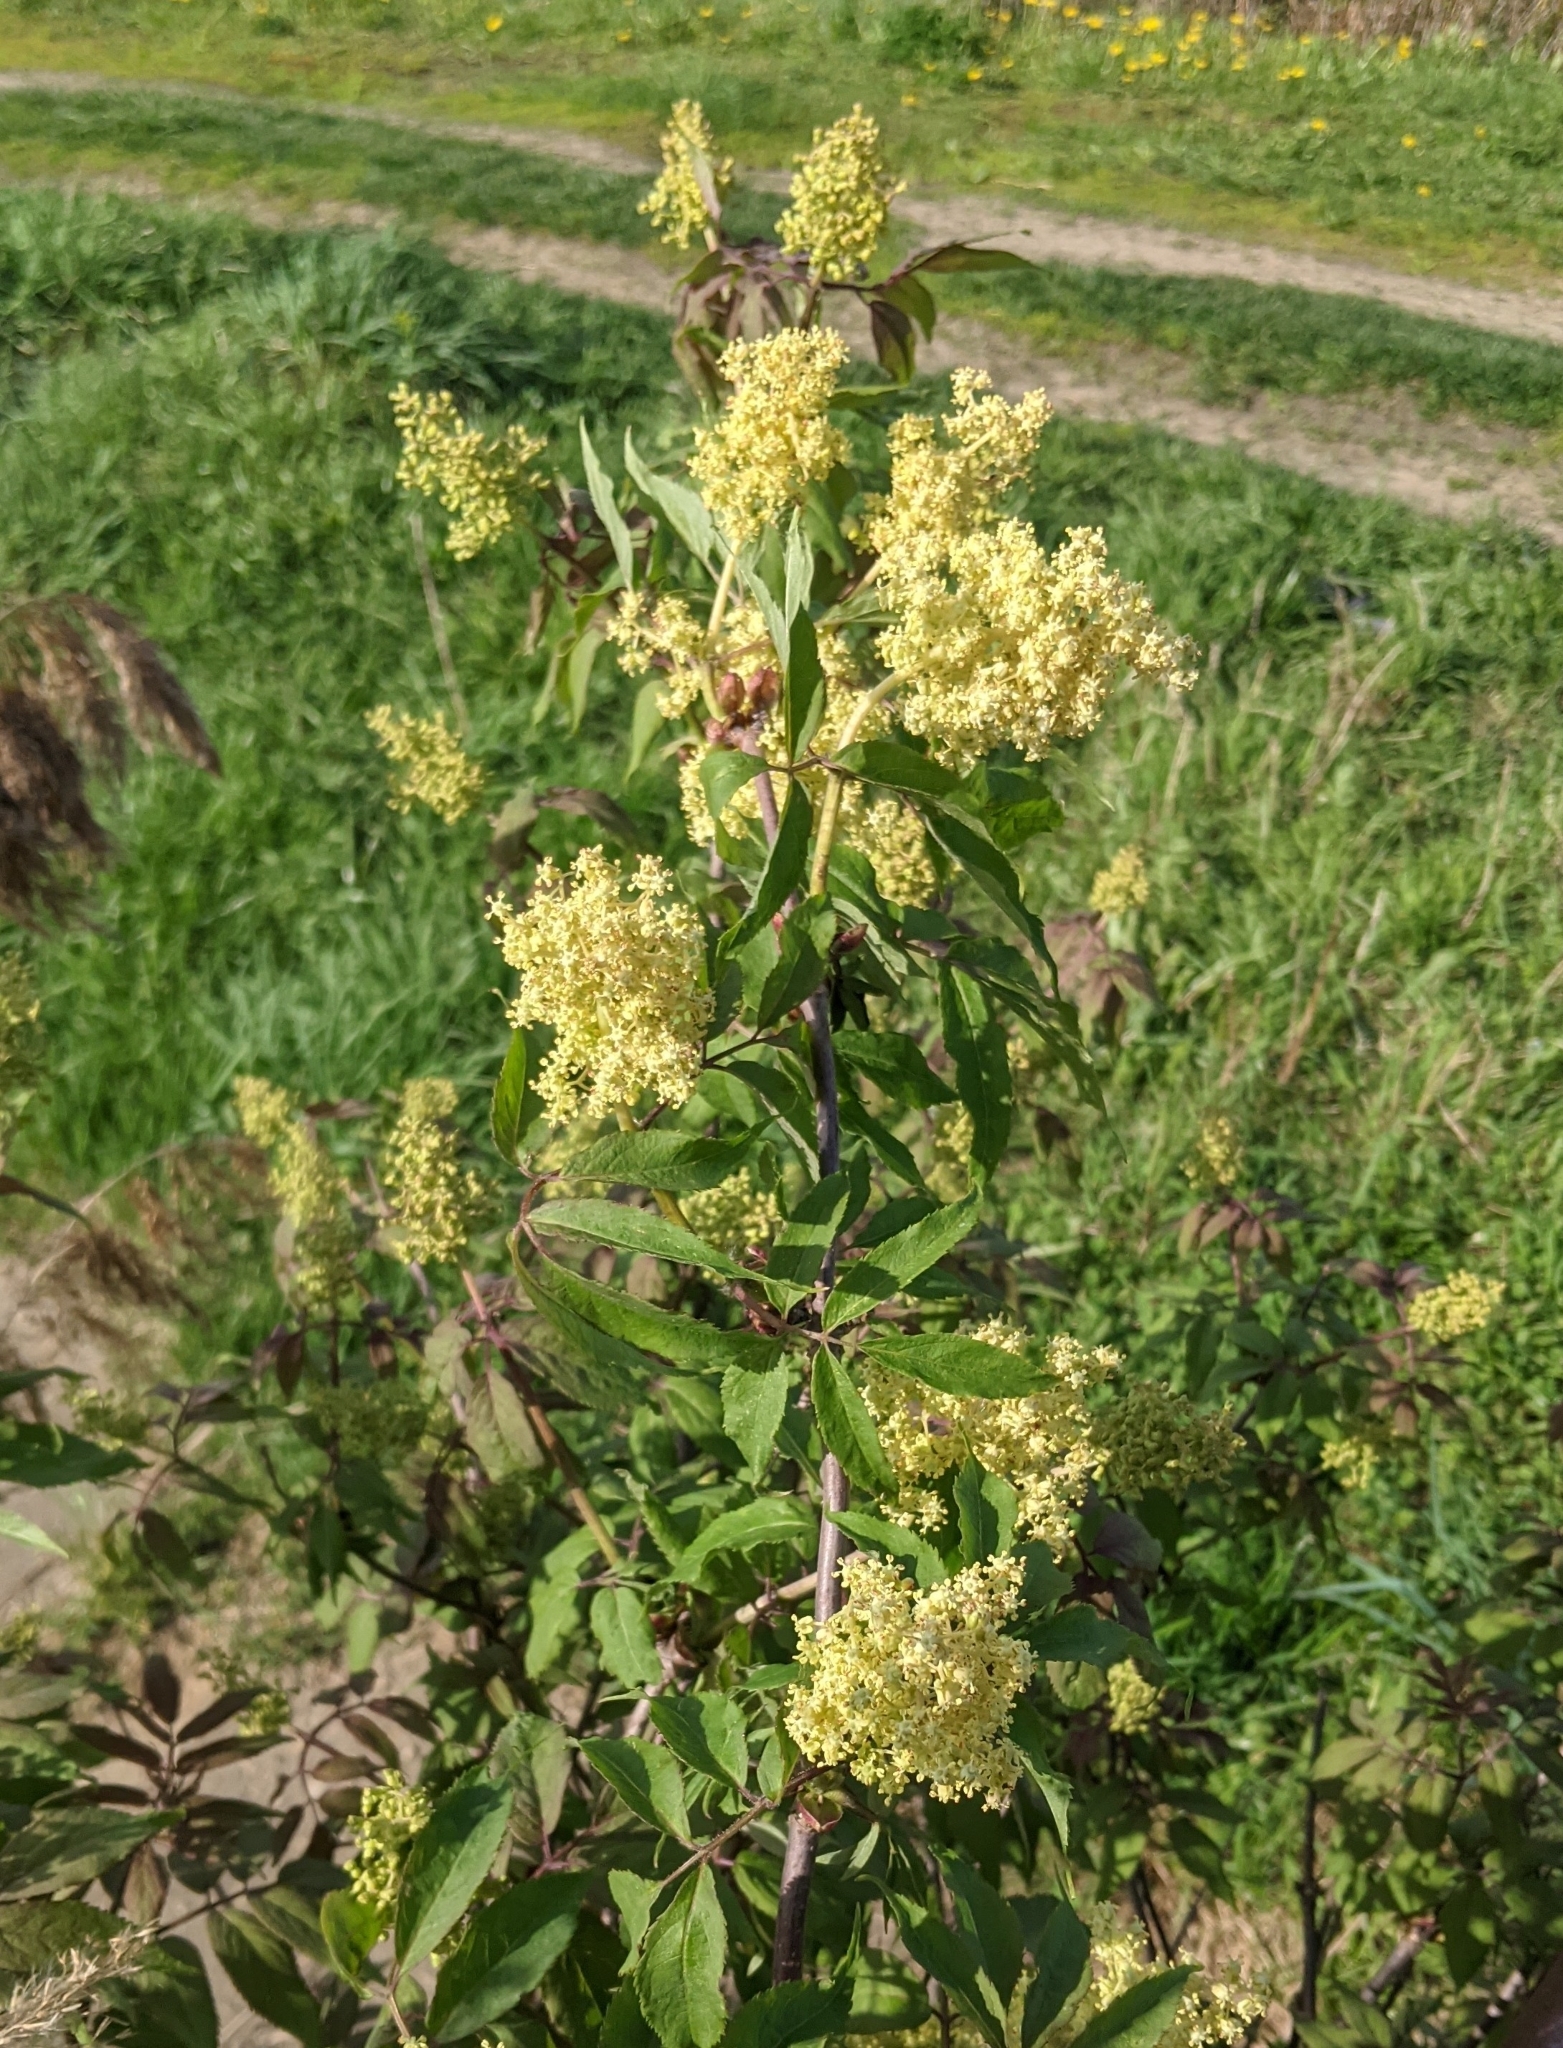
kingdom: Plantae
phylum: Tracheophyta
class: Magnoliopsida
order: Dipsacales
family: Viburnaceae
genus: Sambucus
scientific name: Sambucus racemosa
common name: Red-berried elder
